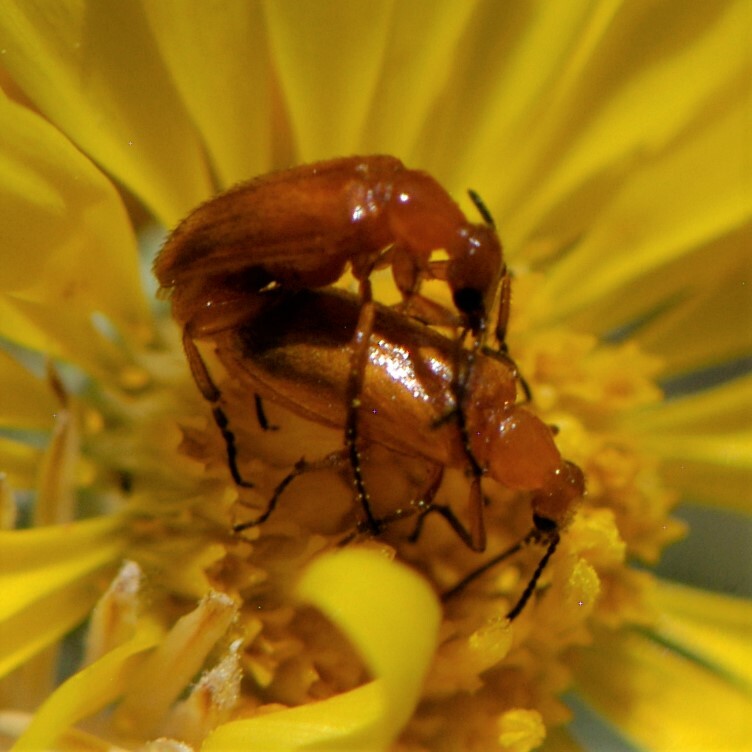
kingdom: Animalia
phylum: Arthropoda
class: Insecta
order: Coleoptera
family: Meloidae
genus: Gnathium
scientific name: Gnathium nitidum
